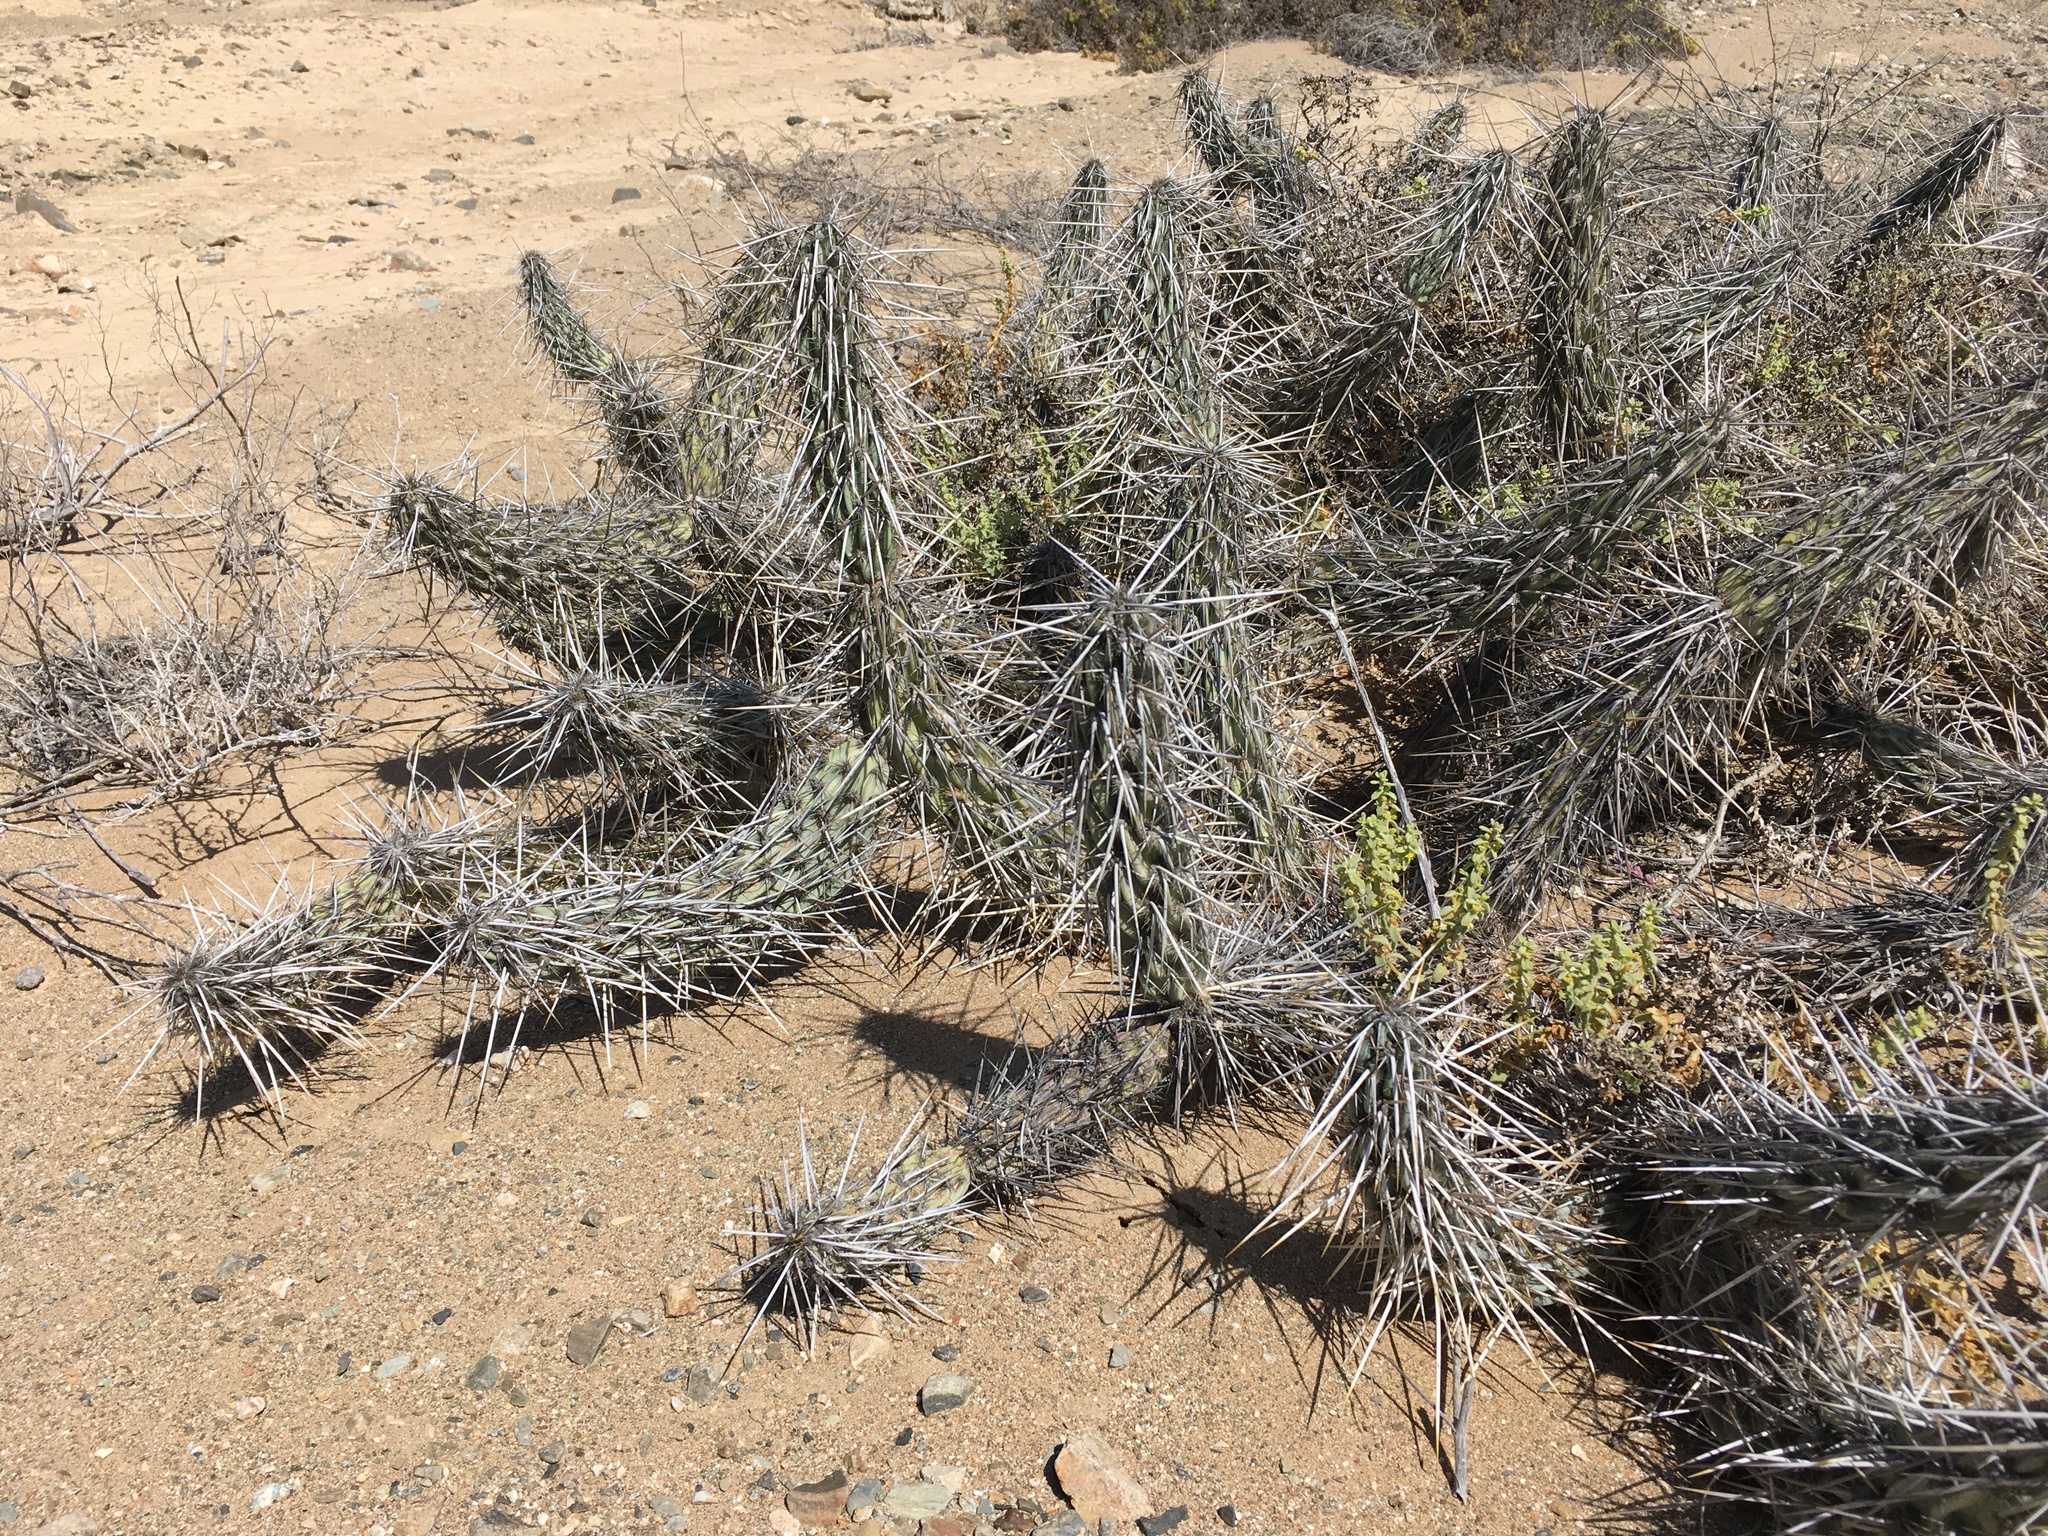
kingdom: Plantae
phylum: Tracheophyta
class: Magnoliopsida
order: Caryophyllales
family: Cactaceae
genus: Miqueliopuntia
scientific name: Miqueliopuntia miquelii
